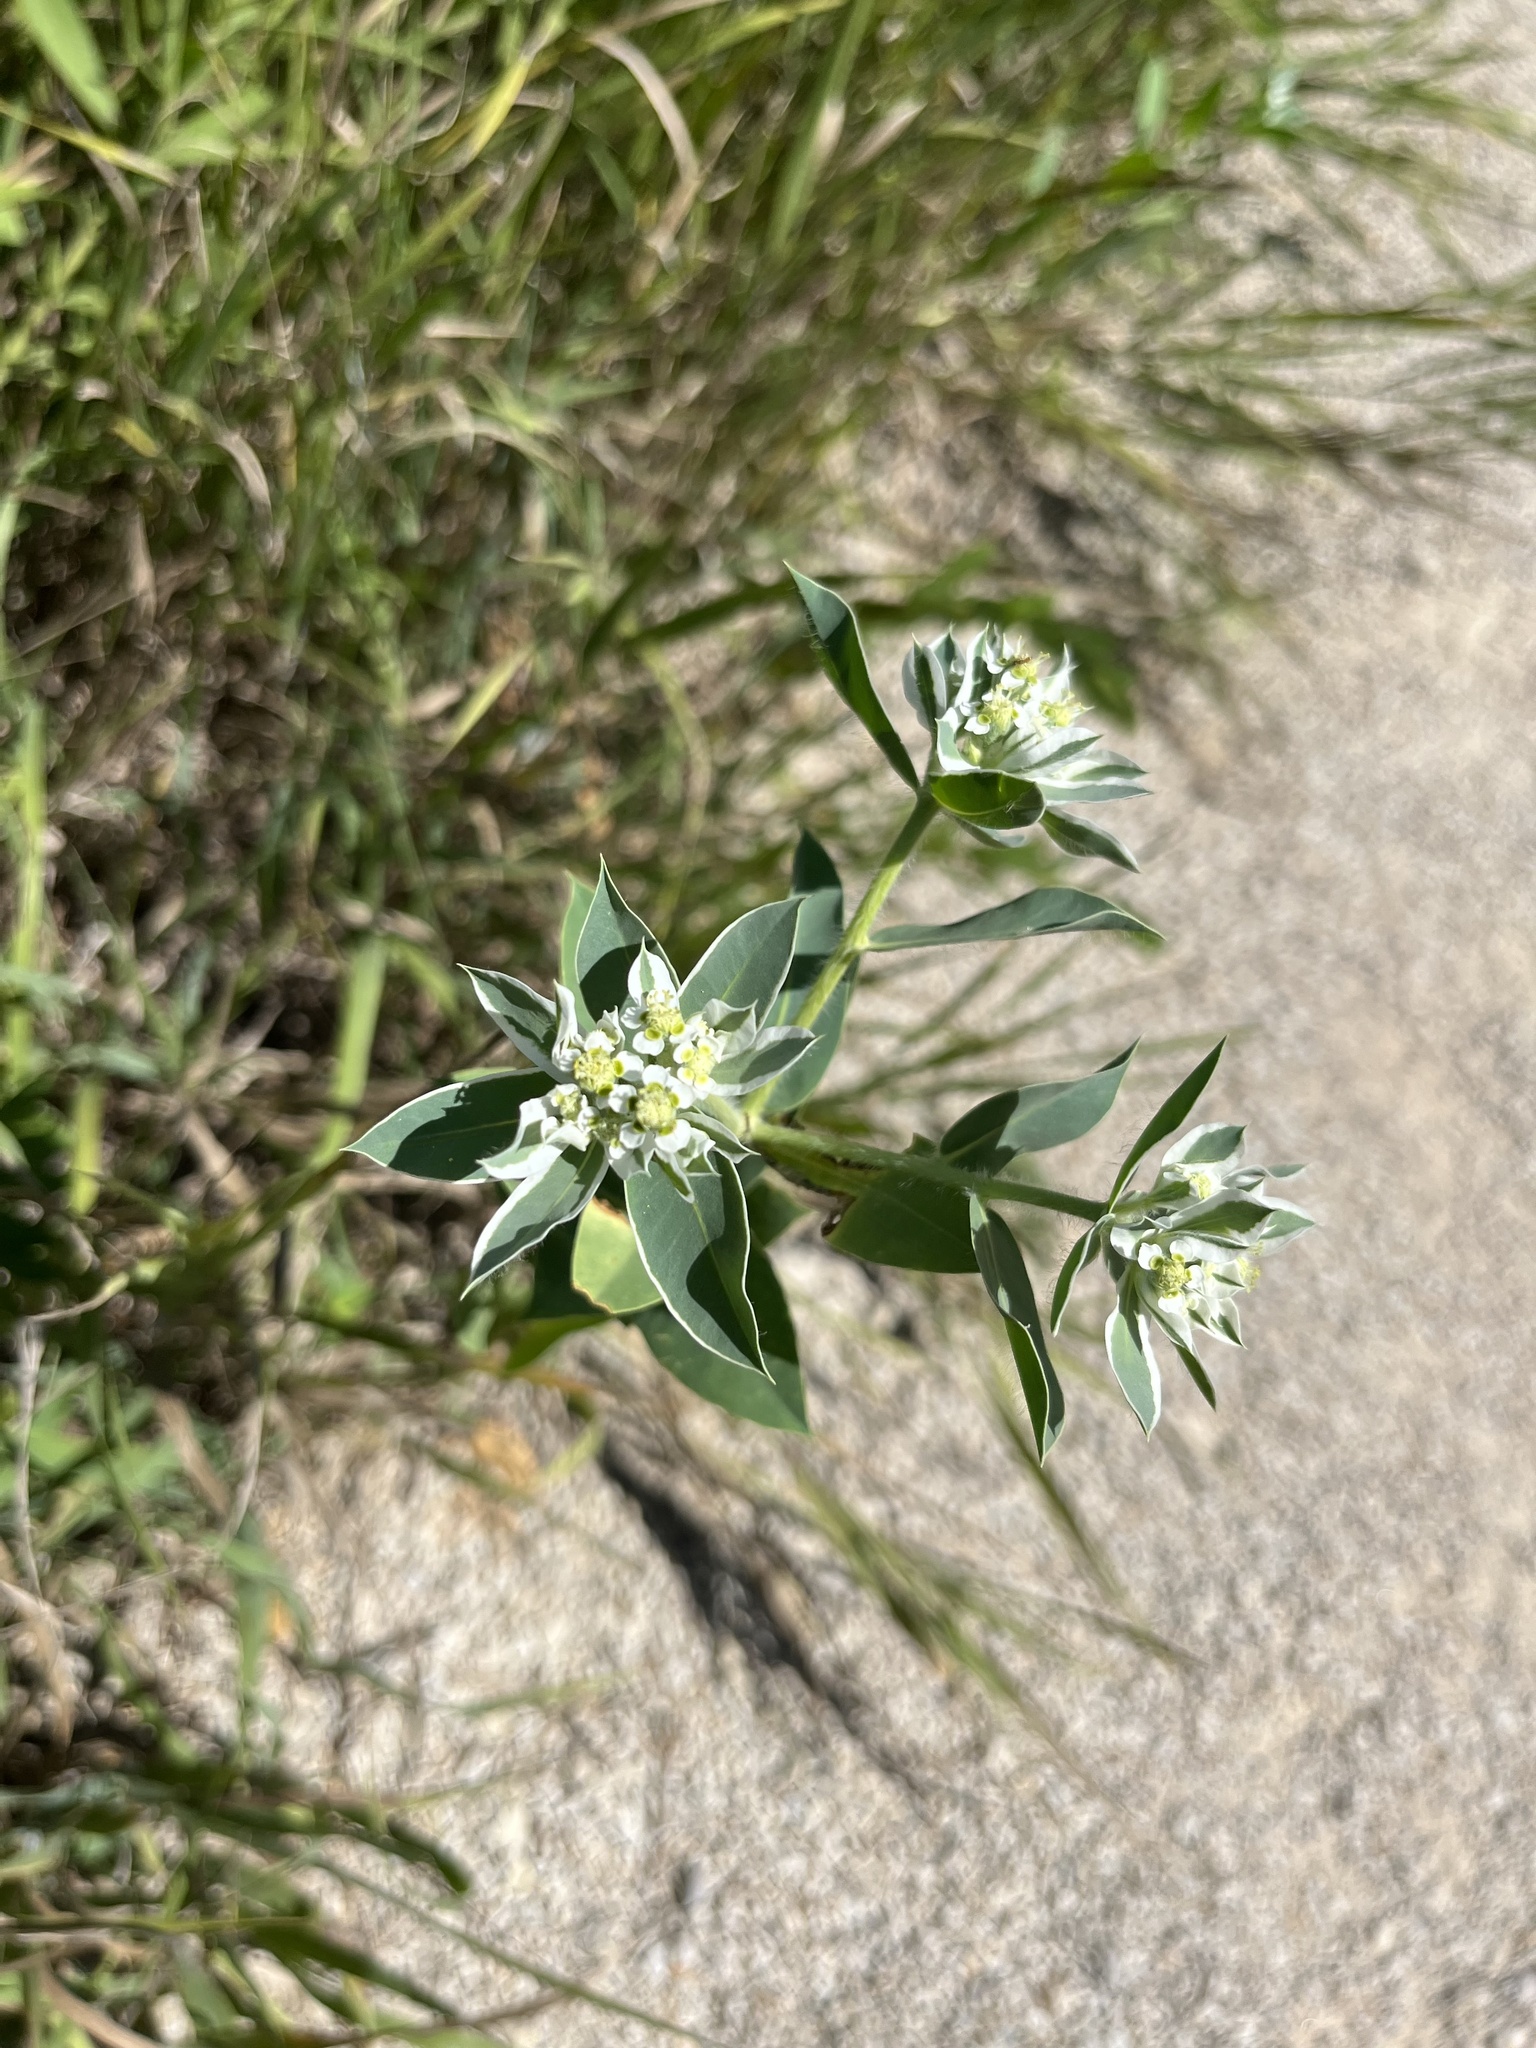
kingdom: Plantae
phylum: Tracheophyta
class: Magnoliopsida
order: Malpighiales
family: Euphorbiaceae
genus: Euphorbia
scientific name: Euphorbia marginata
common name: Ghostweed
